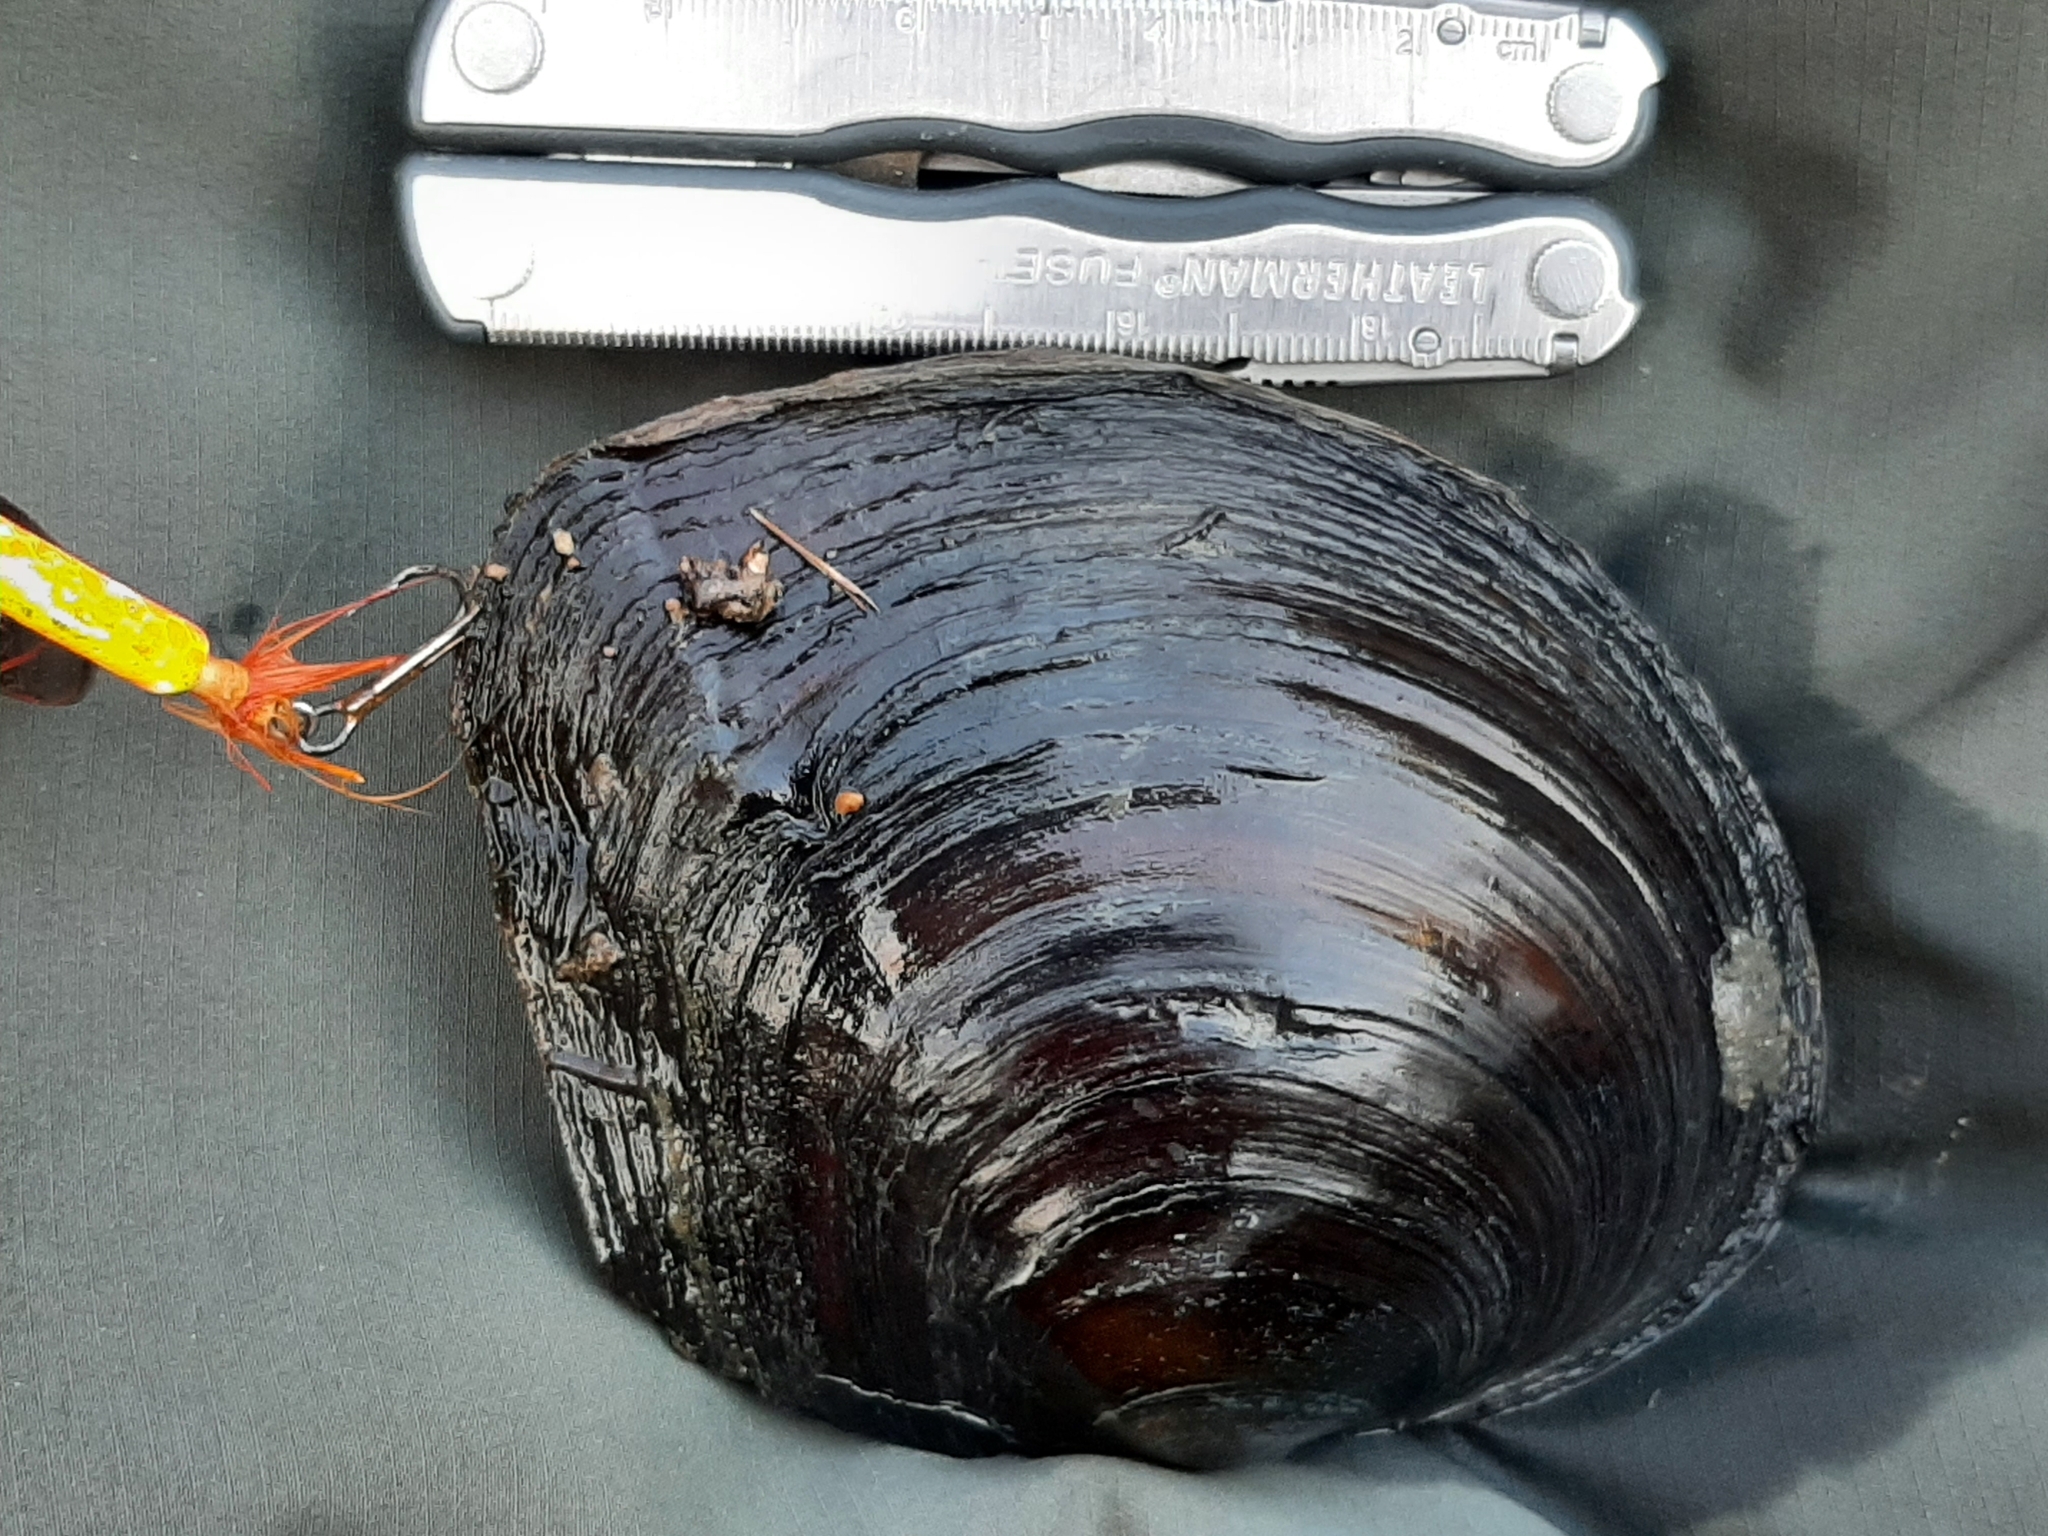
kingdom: Animalia
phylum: Mollusca
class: Bivalvia
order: Unionida
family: Unionidae
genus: Lasmigona
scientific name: Lasmigona complanata
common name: White heelsplitter
